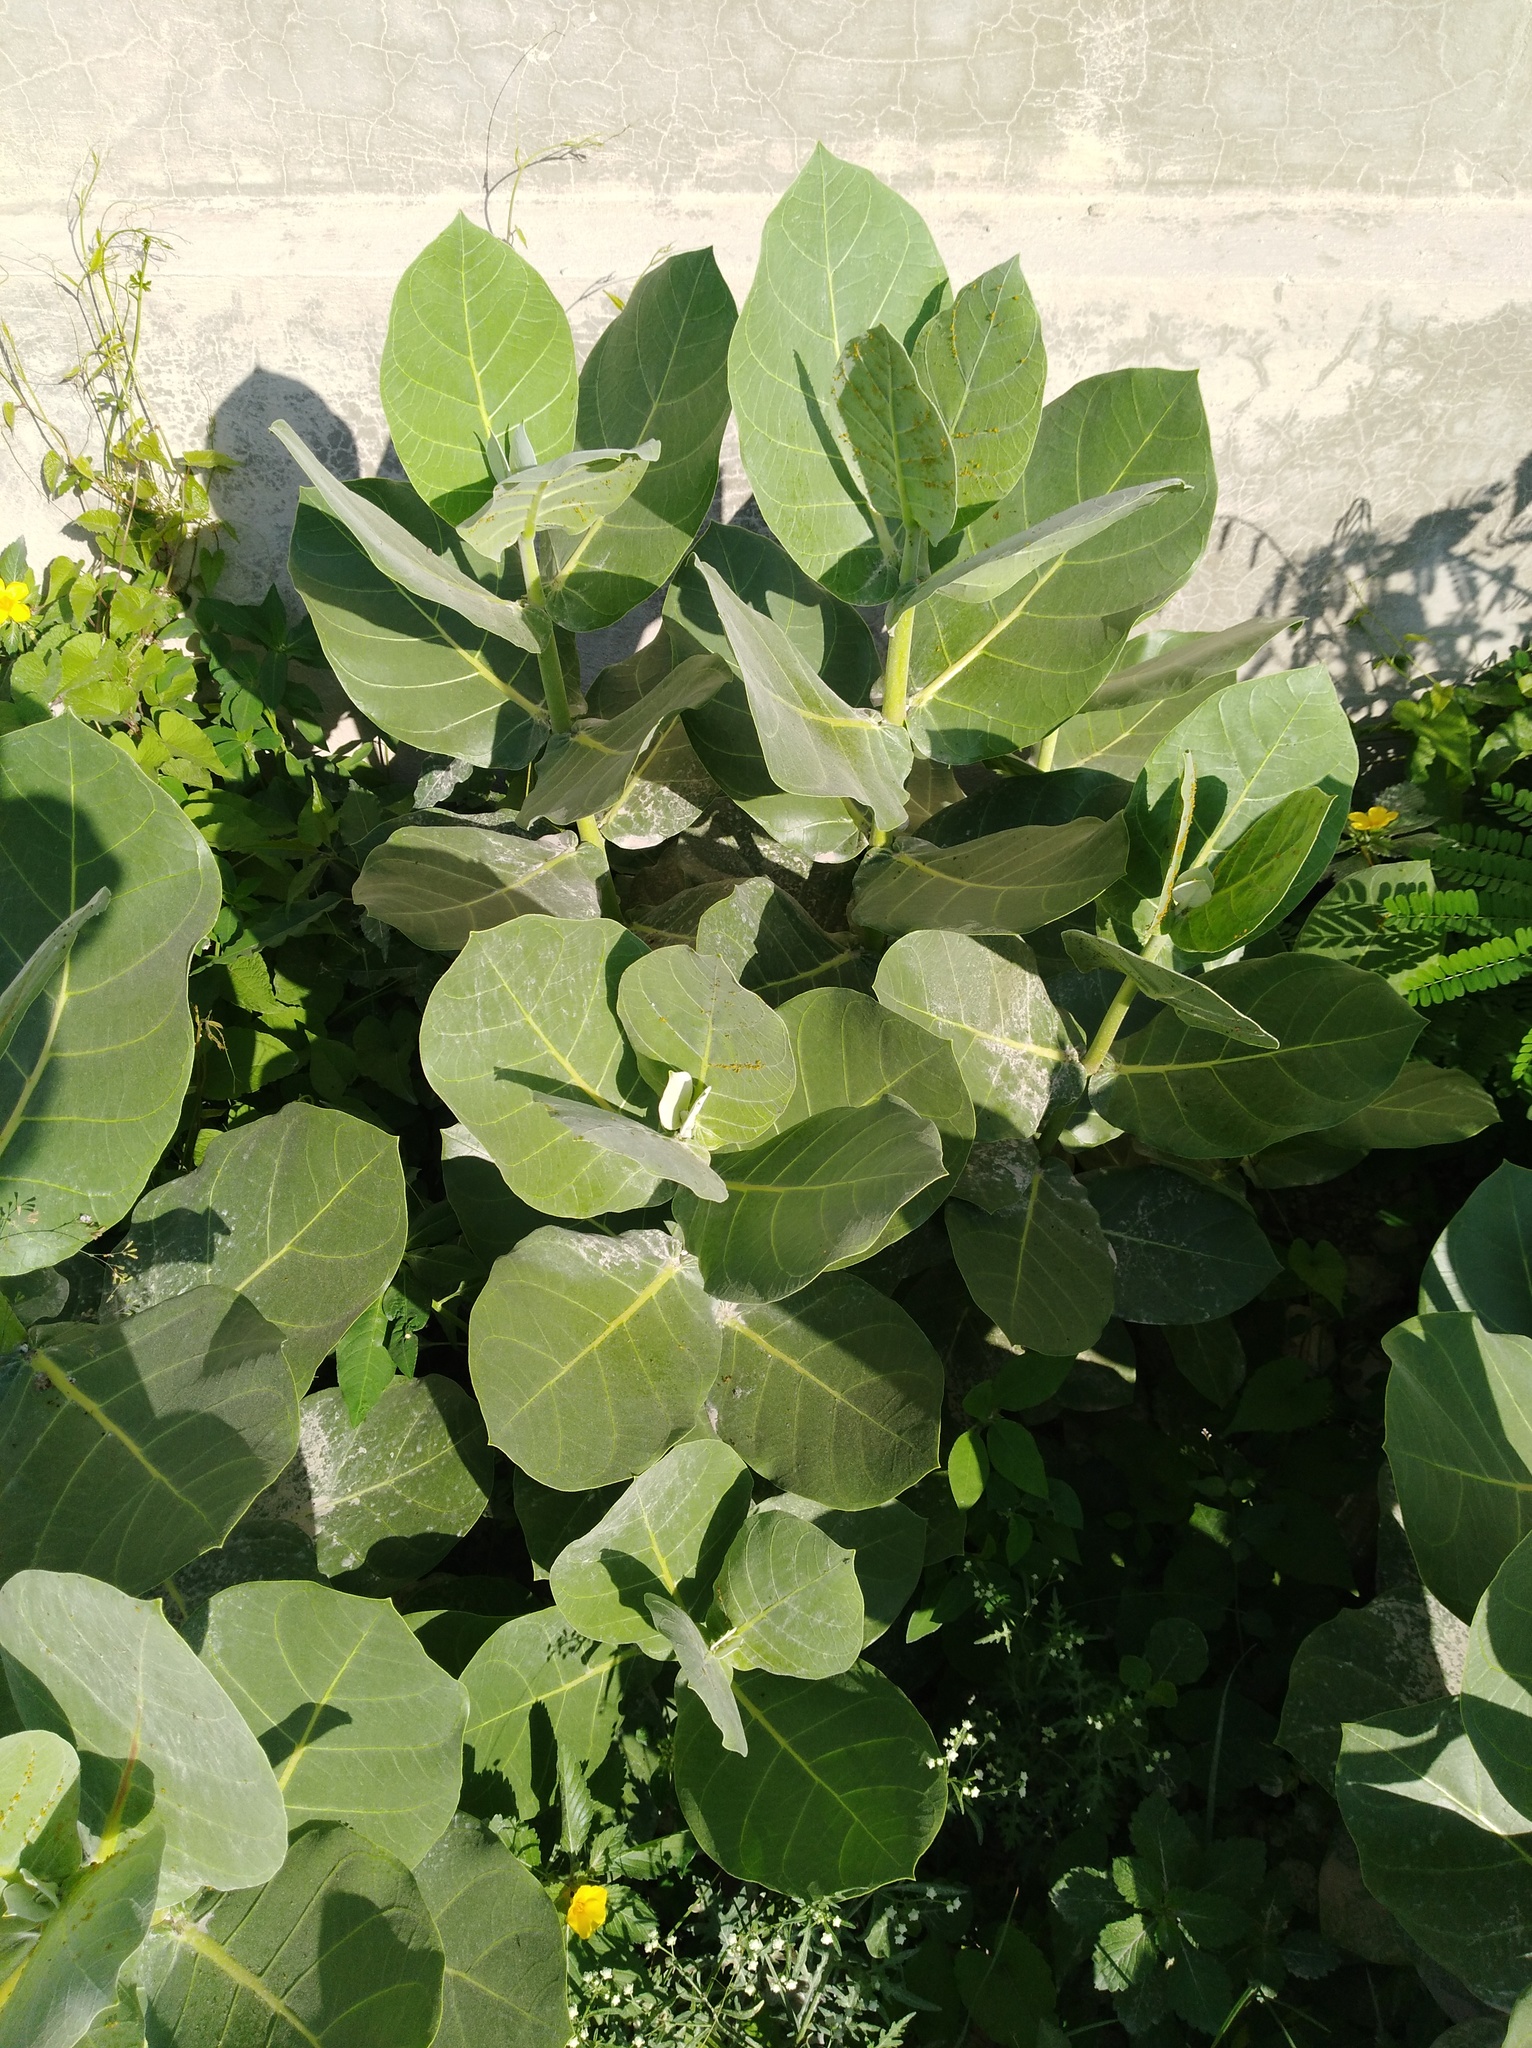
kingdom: Plantae
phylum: Tracheophyta
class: Magnoliopsida
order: Gentianales
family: Apocynaceae
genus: Calotropis
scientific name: Calotropis procera
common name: Roostertree
